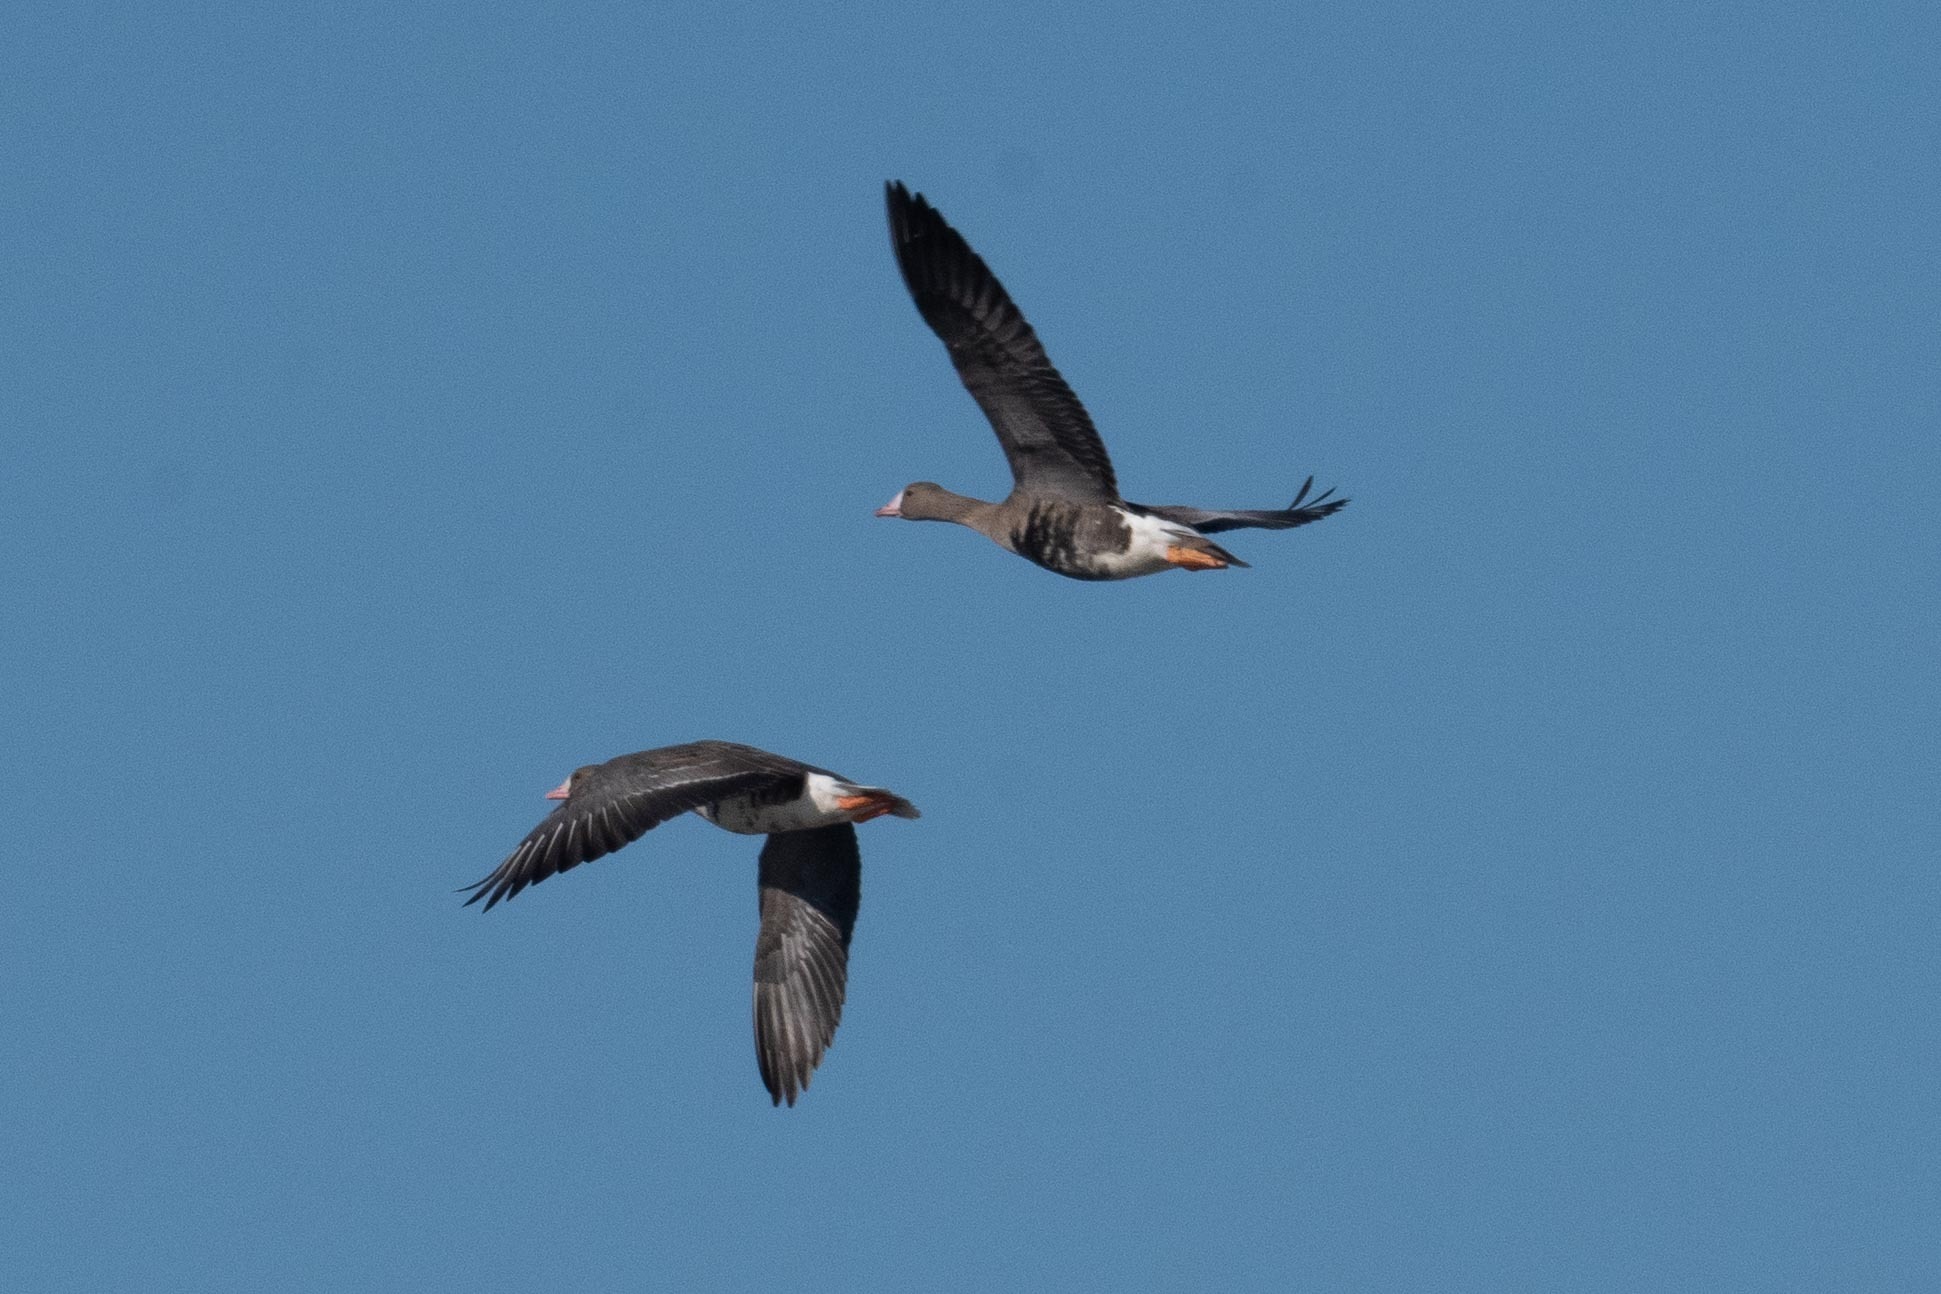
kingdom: Animalia
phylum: Chordata
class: Aves
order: Anseriformes
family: Anatidae
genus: Anser
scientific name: Anser albifrons
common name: Greater white-fronted goose
